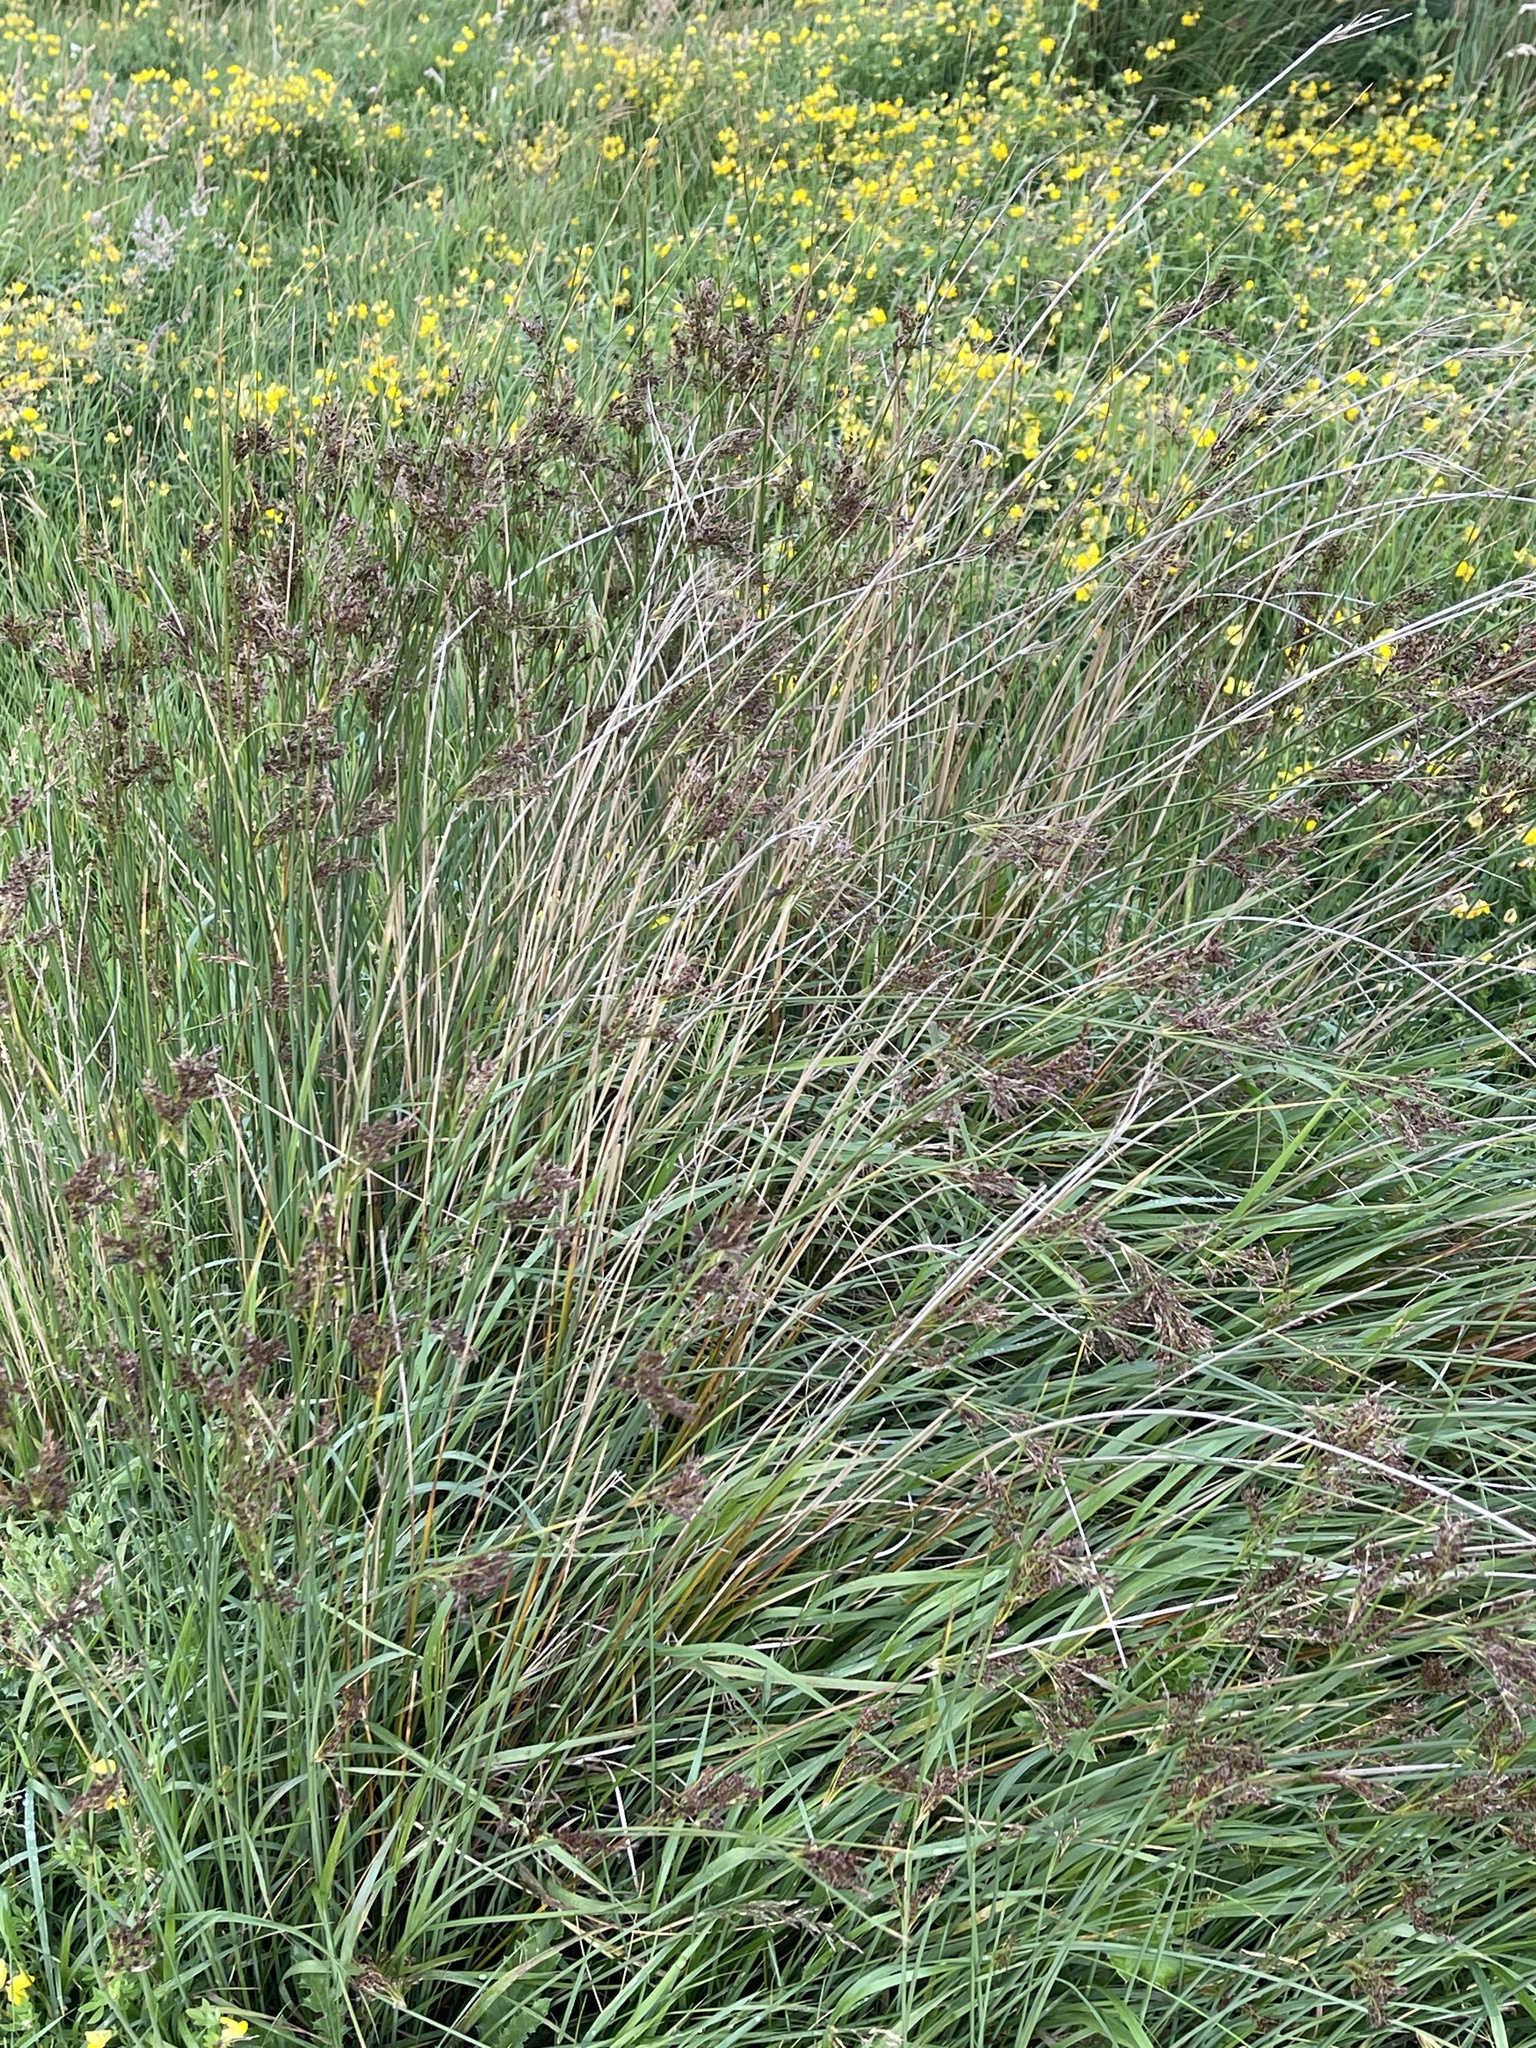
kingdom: Plantae
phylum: Tracheophyta
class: Liliopsida
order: Poales
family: Juncaceae
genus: Juncus
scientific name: Juncus inflexus
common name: Hard rush
